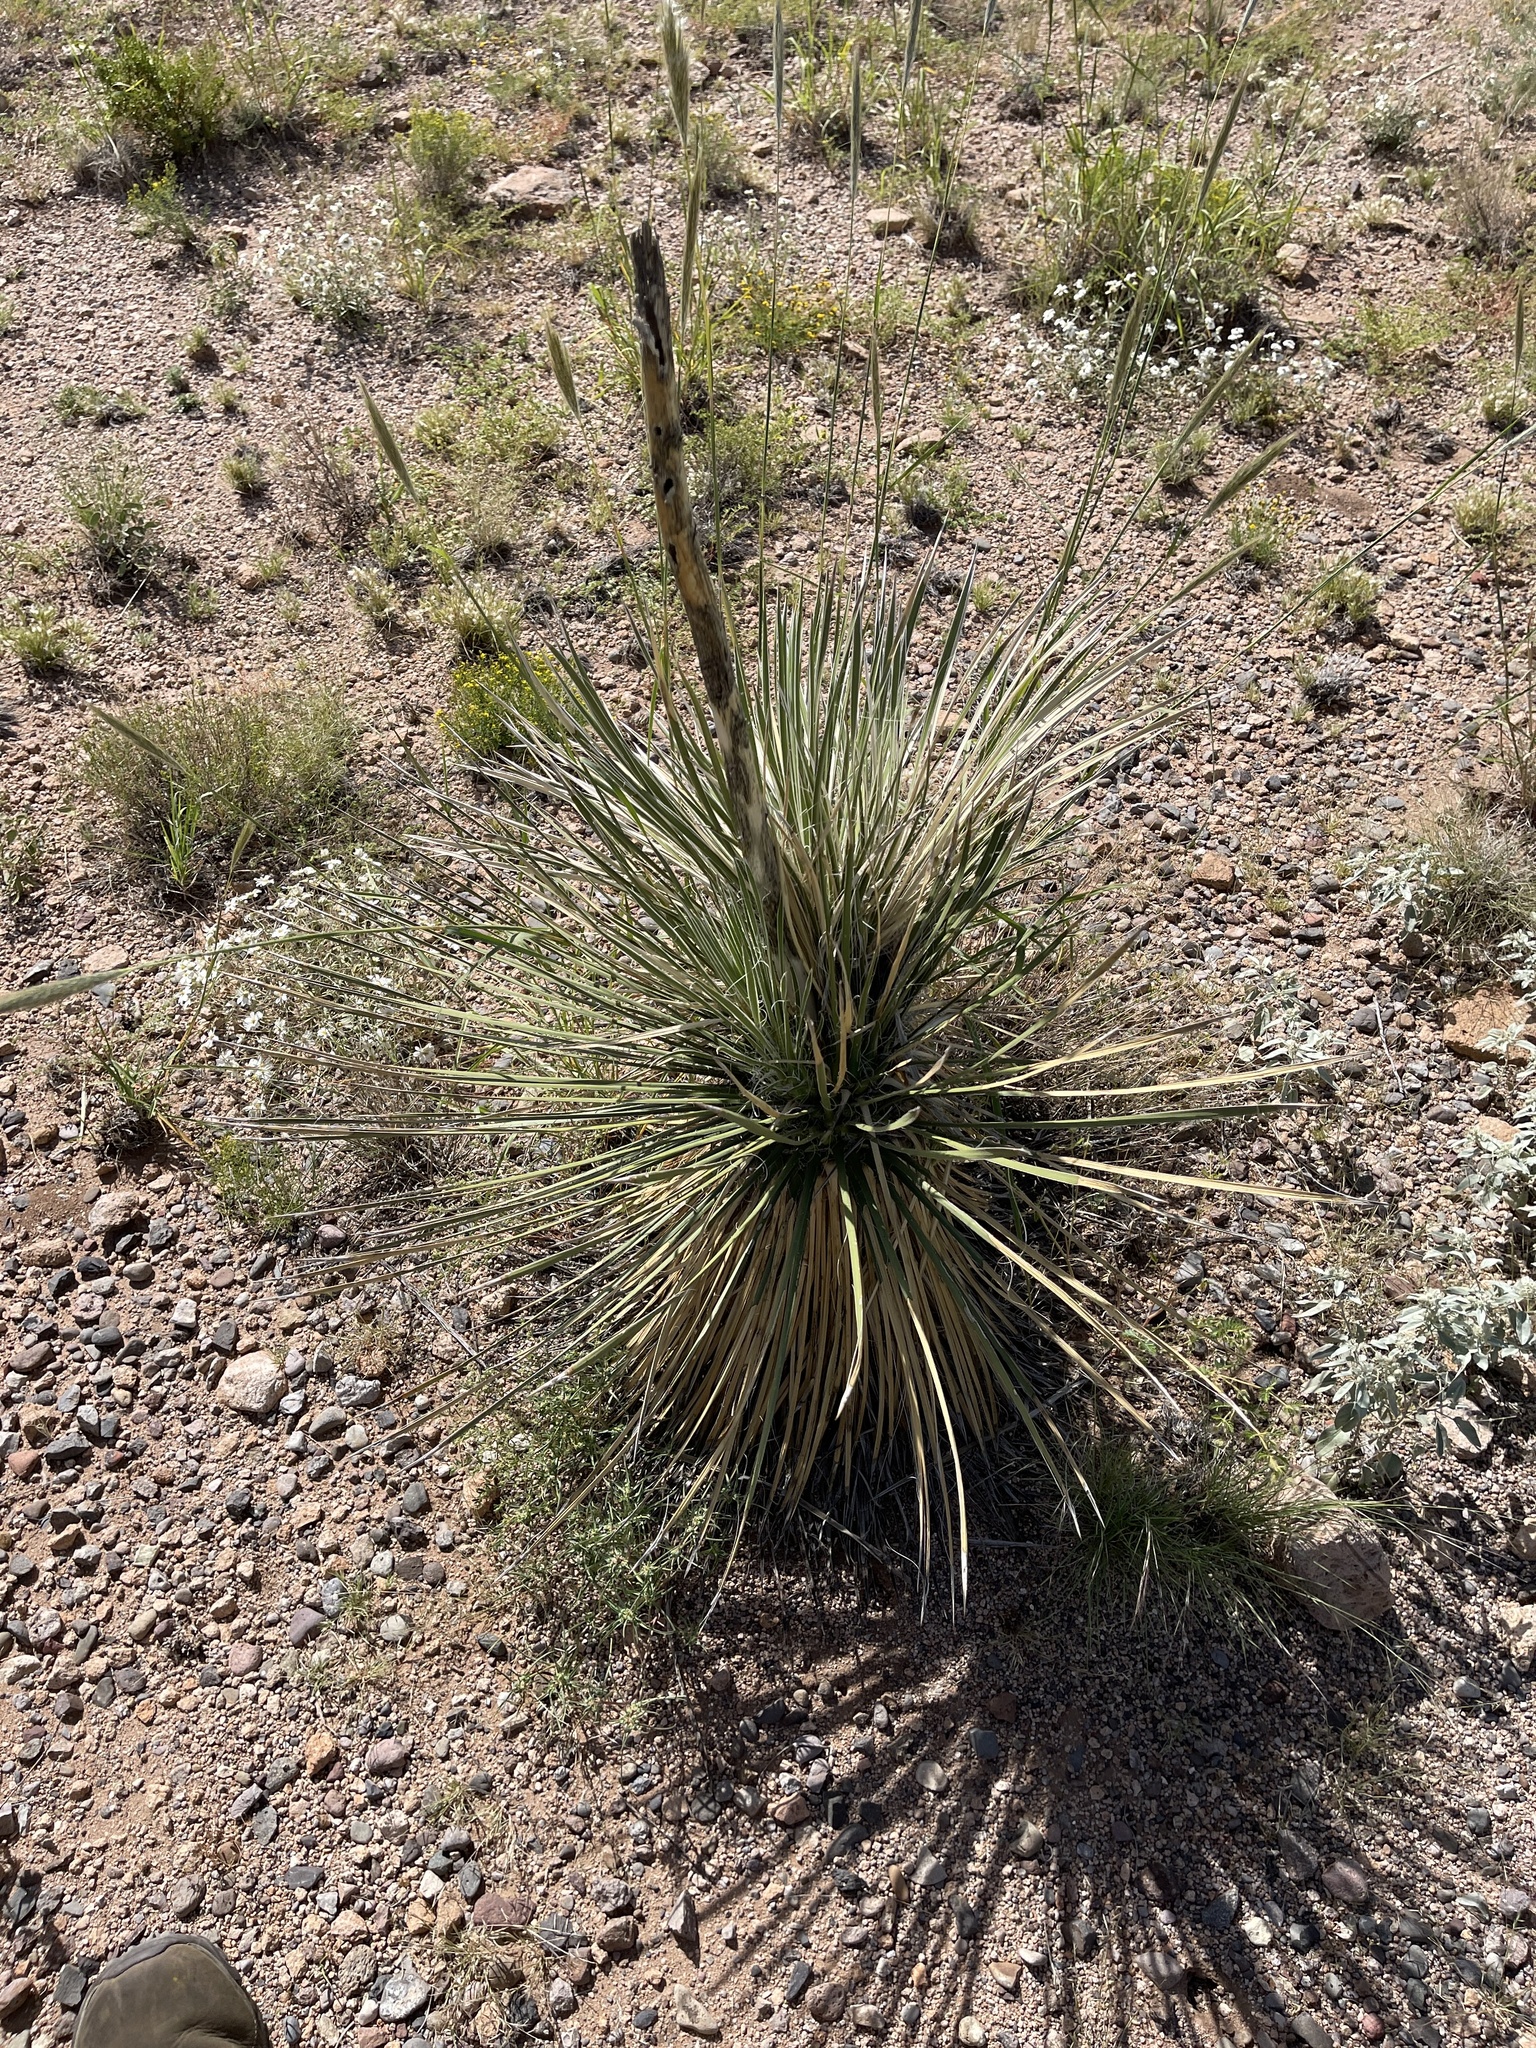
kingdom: Plantae
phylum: Tracheophyta
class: Liliopsida
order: Asparagales
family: Asparagaceae
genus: Yucca
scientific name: Yucca elata
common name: Palmella
